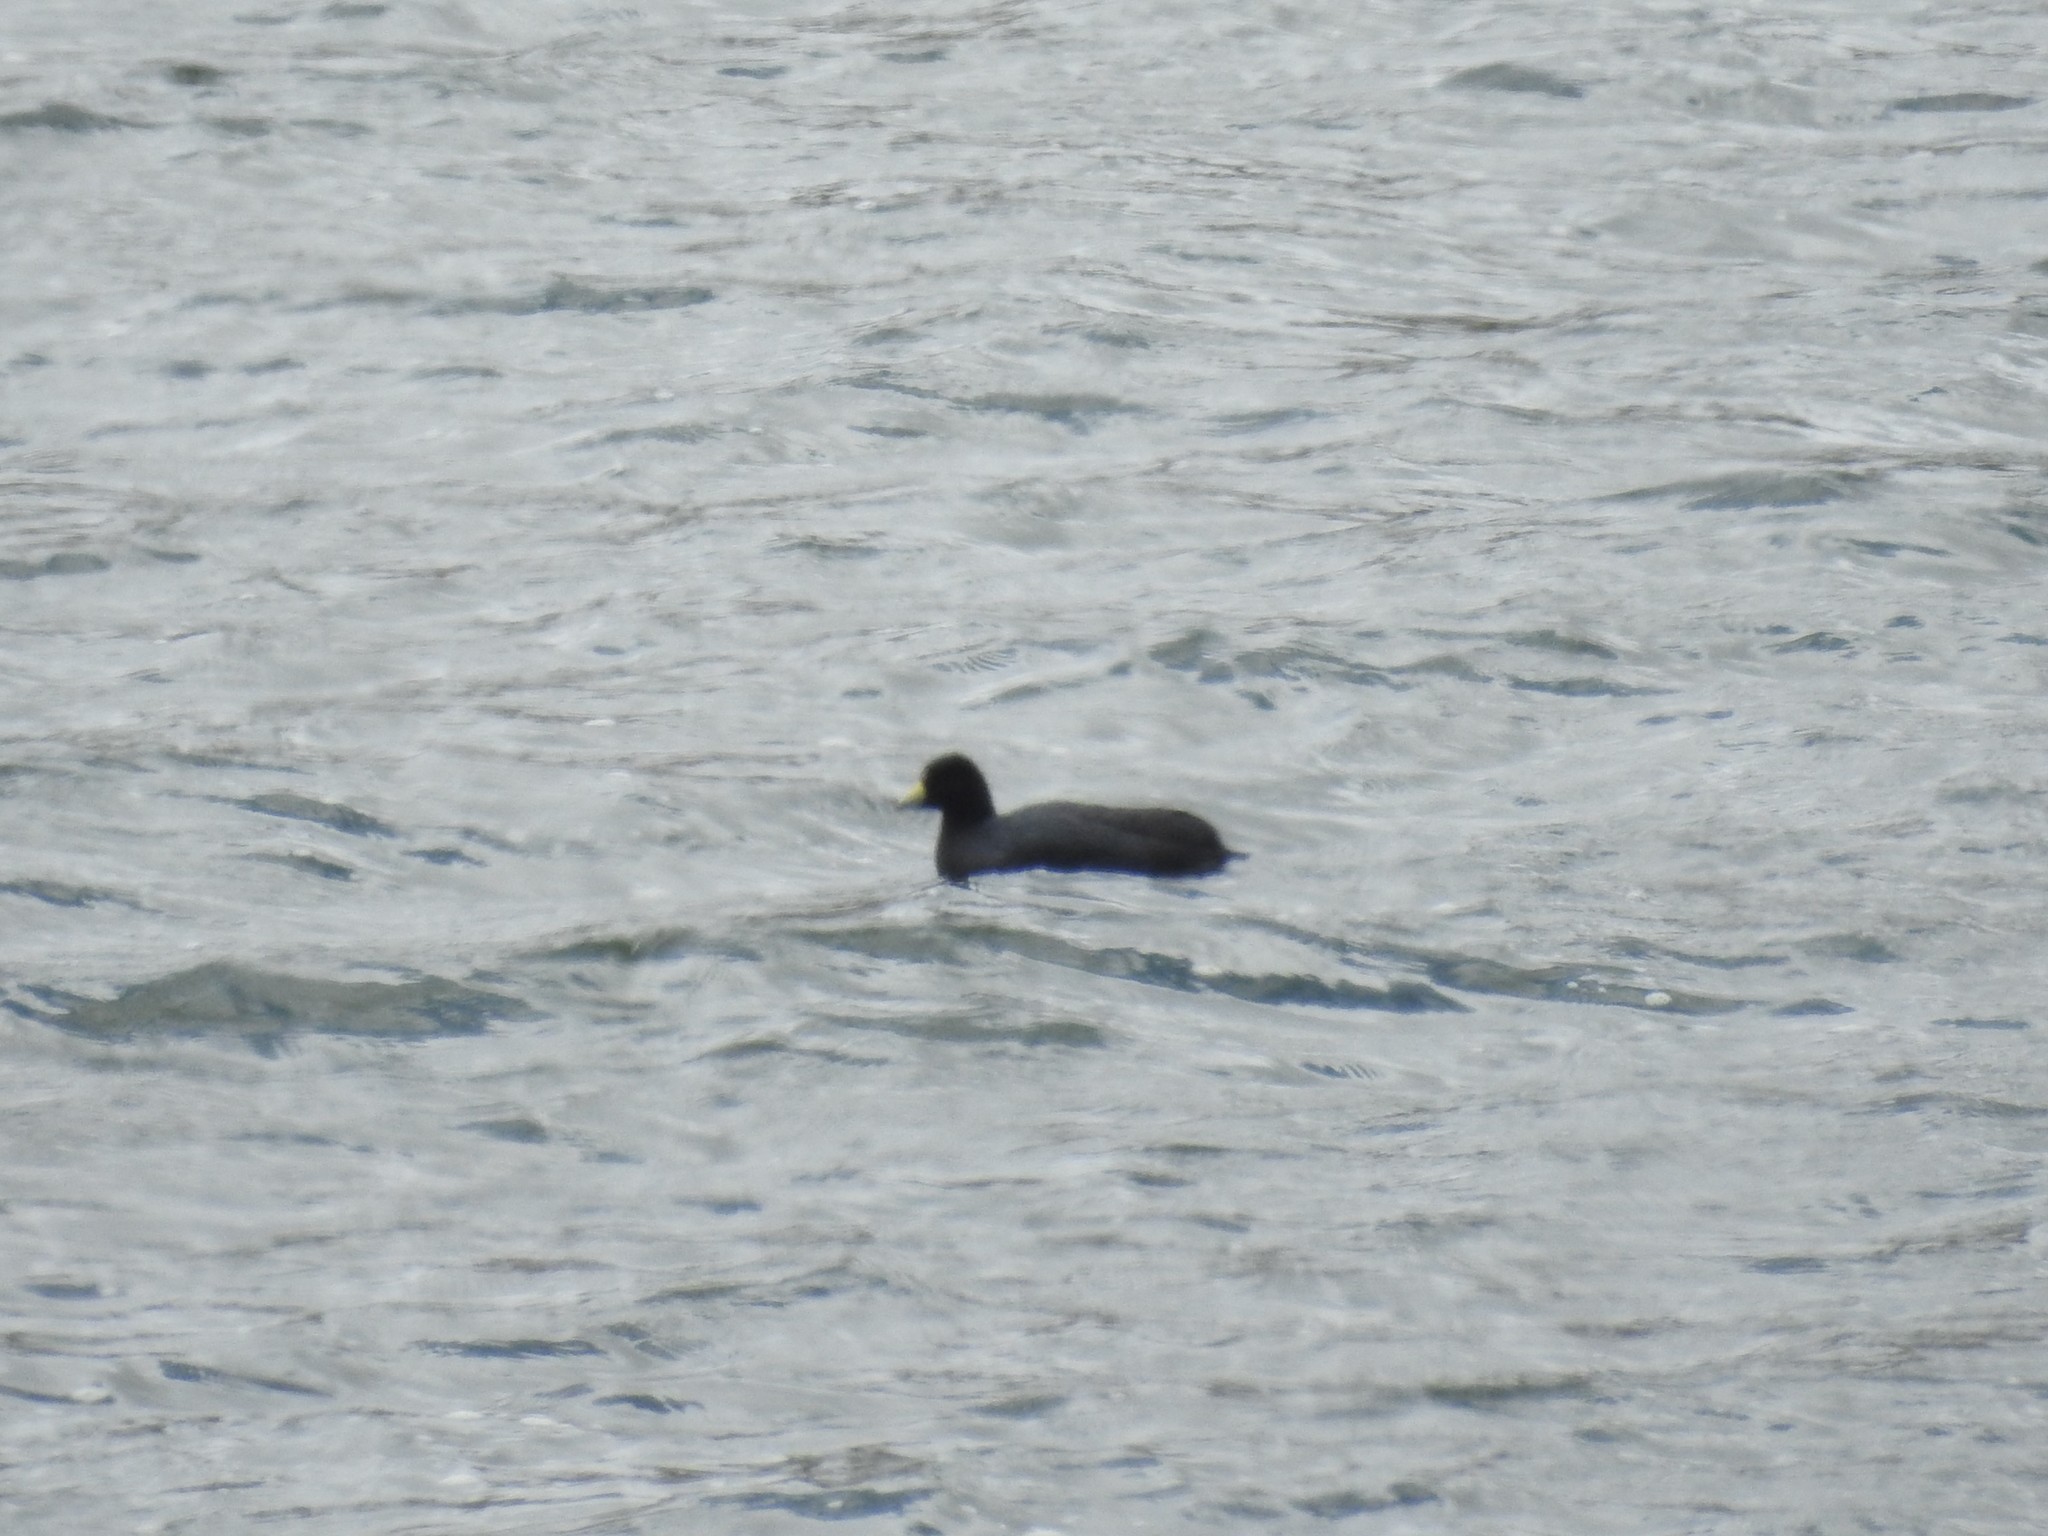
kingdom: Animalia
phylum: Chordata
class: Aves
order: Gruiformes
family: Rallidae
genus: Fulica
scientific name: Fulica ardesiaca
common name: Andean coot
